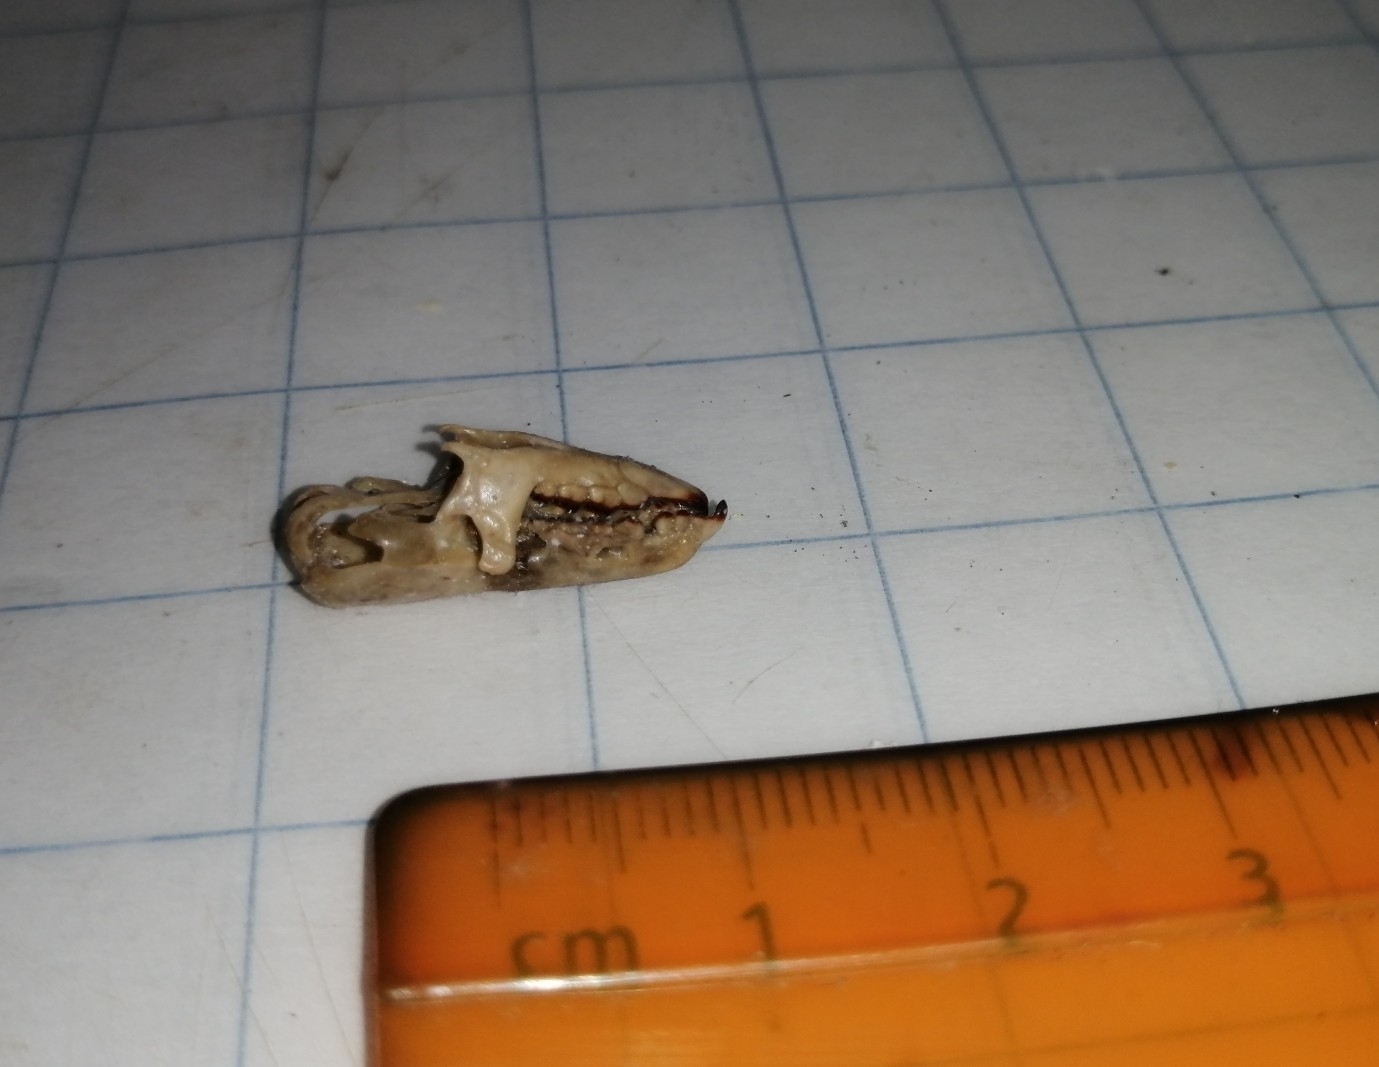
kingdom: Animalia
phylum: Chordata
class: Mammalia
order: Soricomorpha
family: Soricidae
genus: Cryptotis
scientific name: Cryptotis mayensis
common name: Yucatan small-eared shrew
